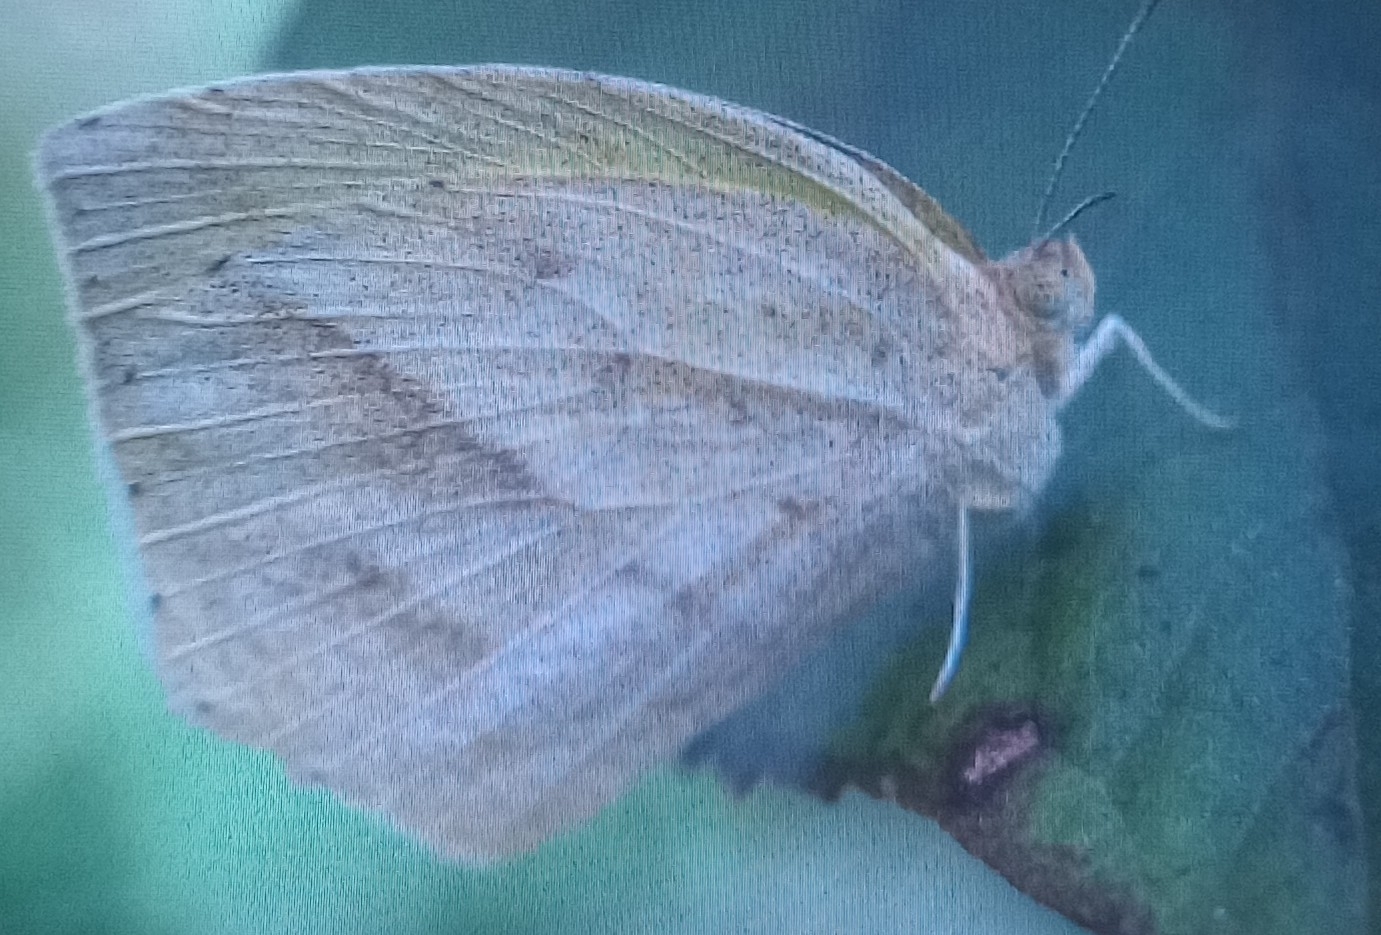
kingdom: Animalia
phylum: Arthropoda
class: Insecta
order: Lepidoptera
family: Pieridae
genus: Eurema
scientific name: Eurema laeta
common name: Spotless grass yellow
